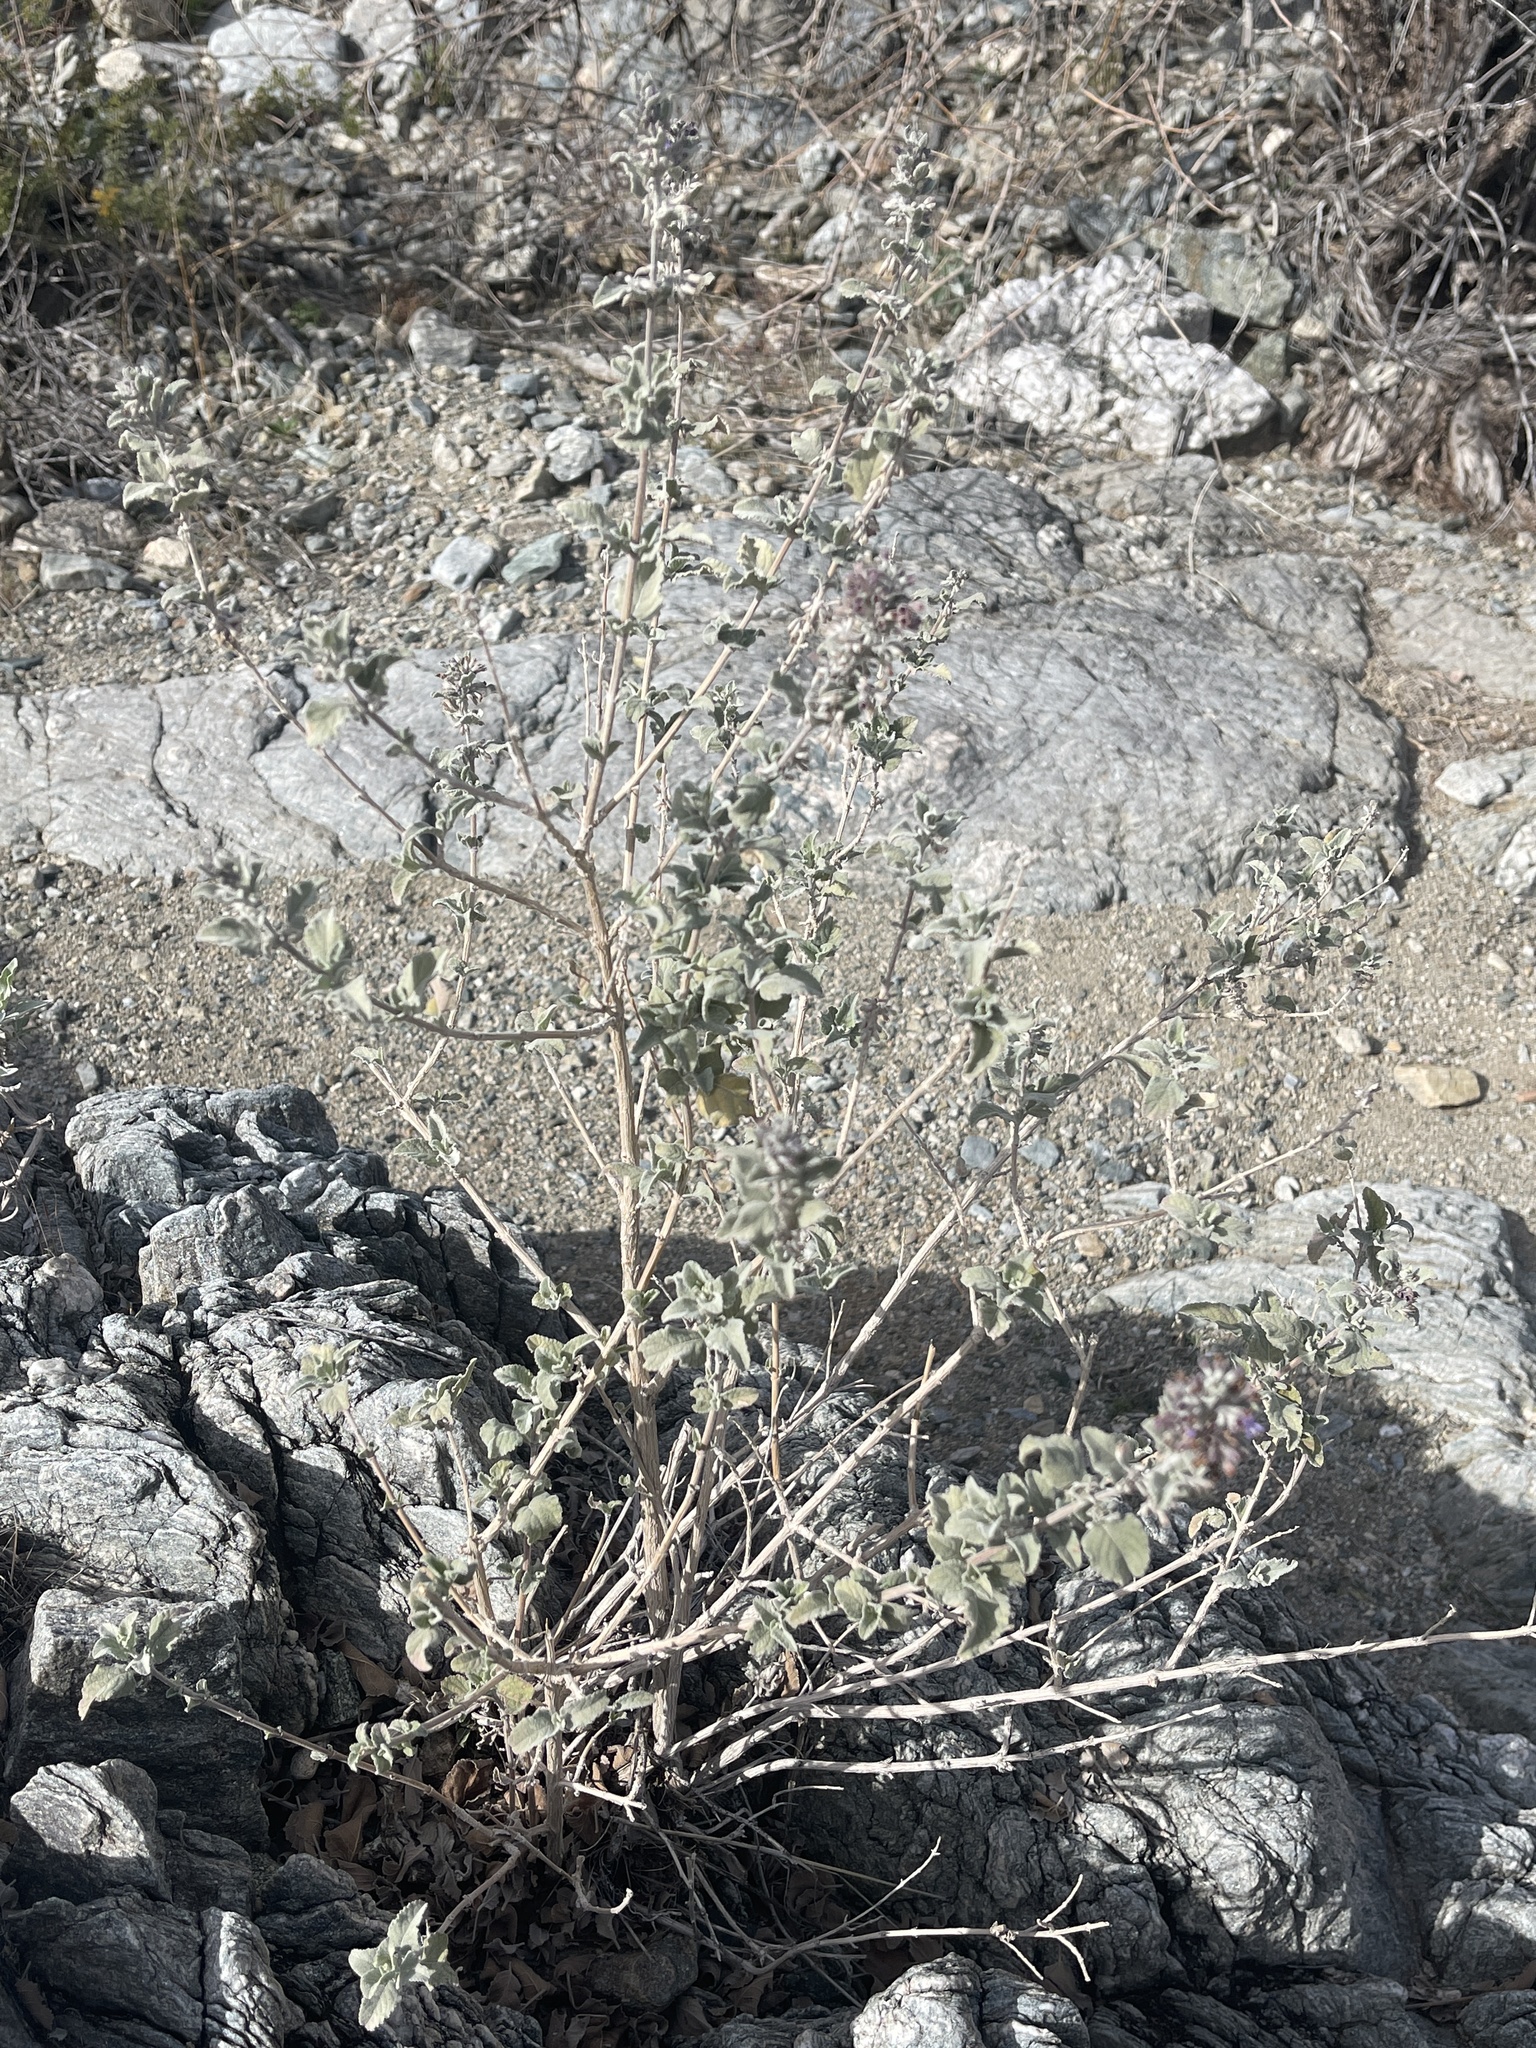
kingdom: Plantae
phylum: Tracheophyta
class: Magnoliopsida
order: Lamiales
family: Lamiaceae
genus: Condea
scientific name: Condea emoryi
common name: Chia
